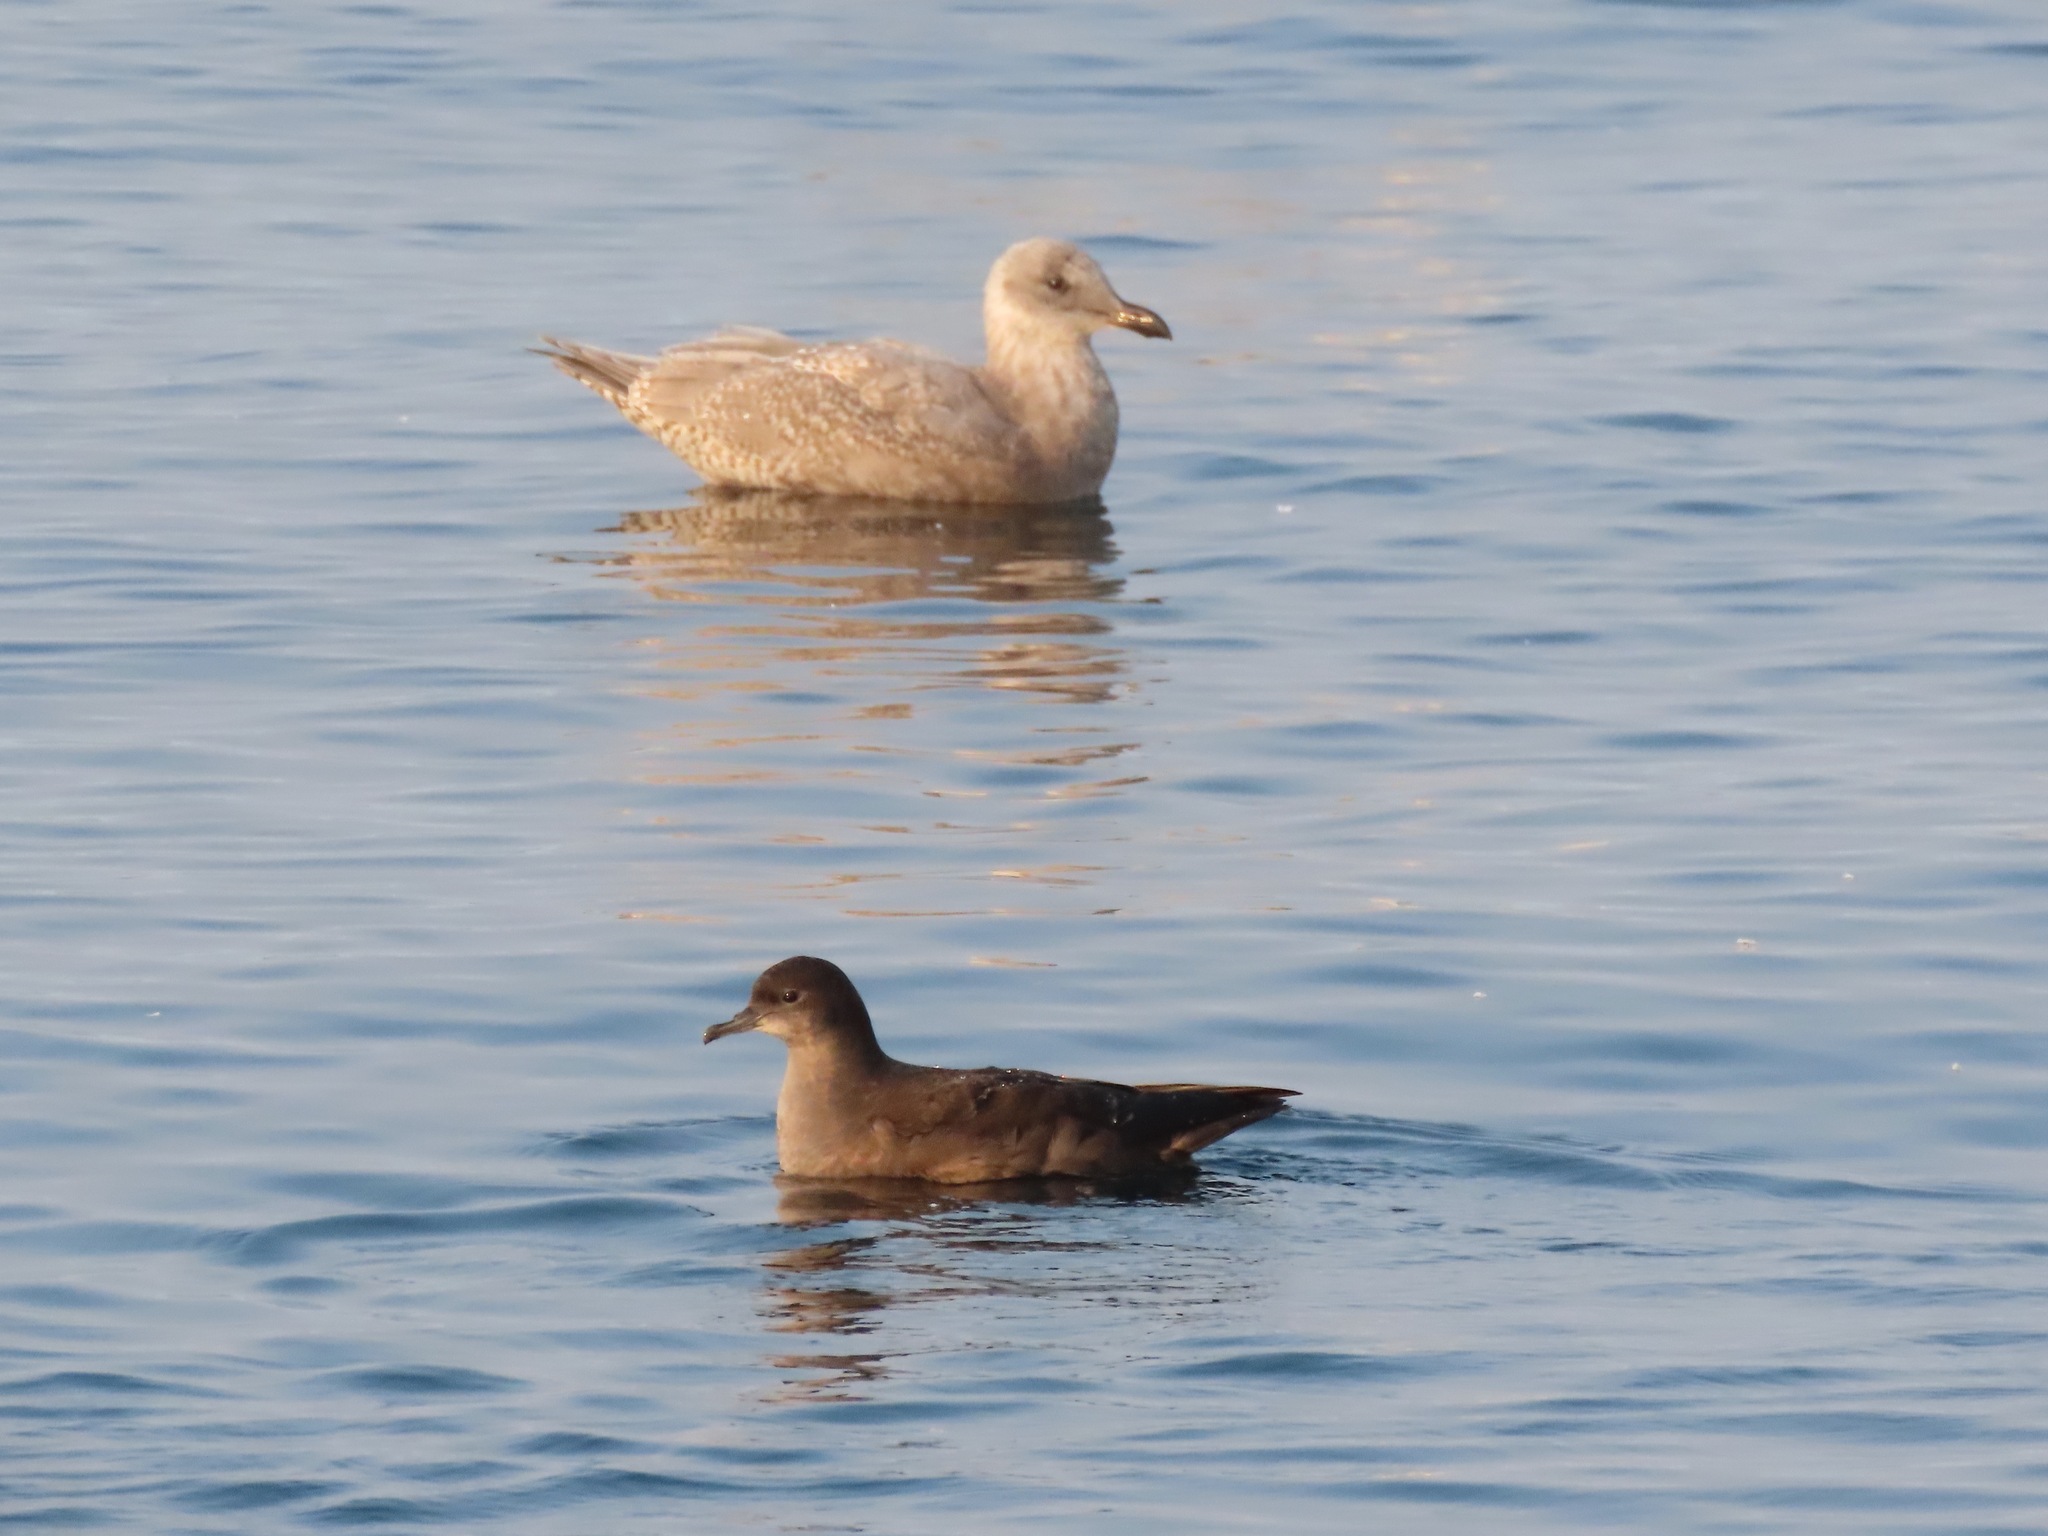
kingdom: Animalia
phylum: Chordata
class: Aves
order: Procellariiformes
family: Procellariidae
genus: Puffinus
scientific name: Puffinus tenuirostris
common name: Short-tailed shearwater
